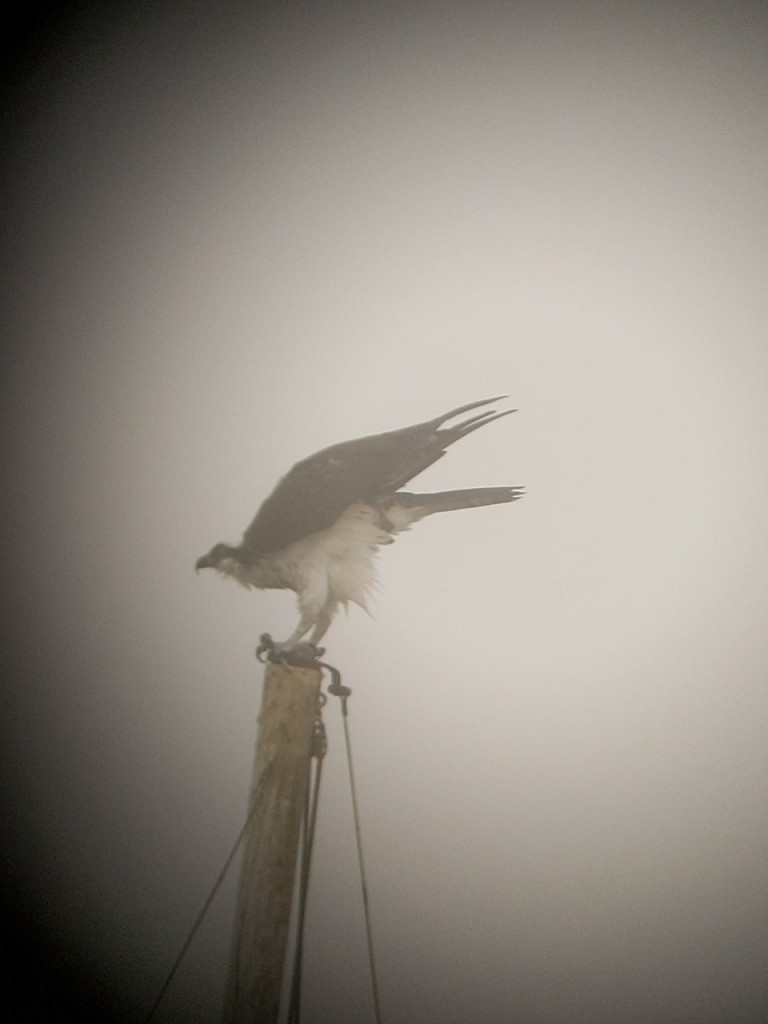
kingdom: Animalia
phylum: Chordata
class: Aves
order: Accipitriformes
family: Pandionidae
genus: Pandion
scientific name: Pandion haliaetus
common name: Osprey
